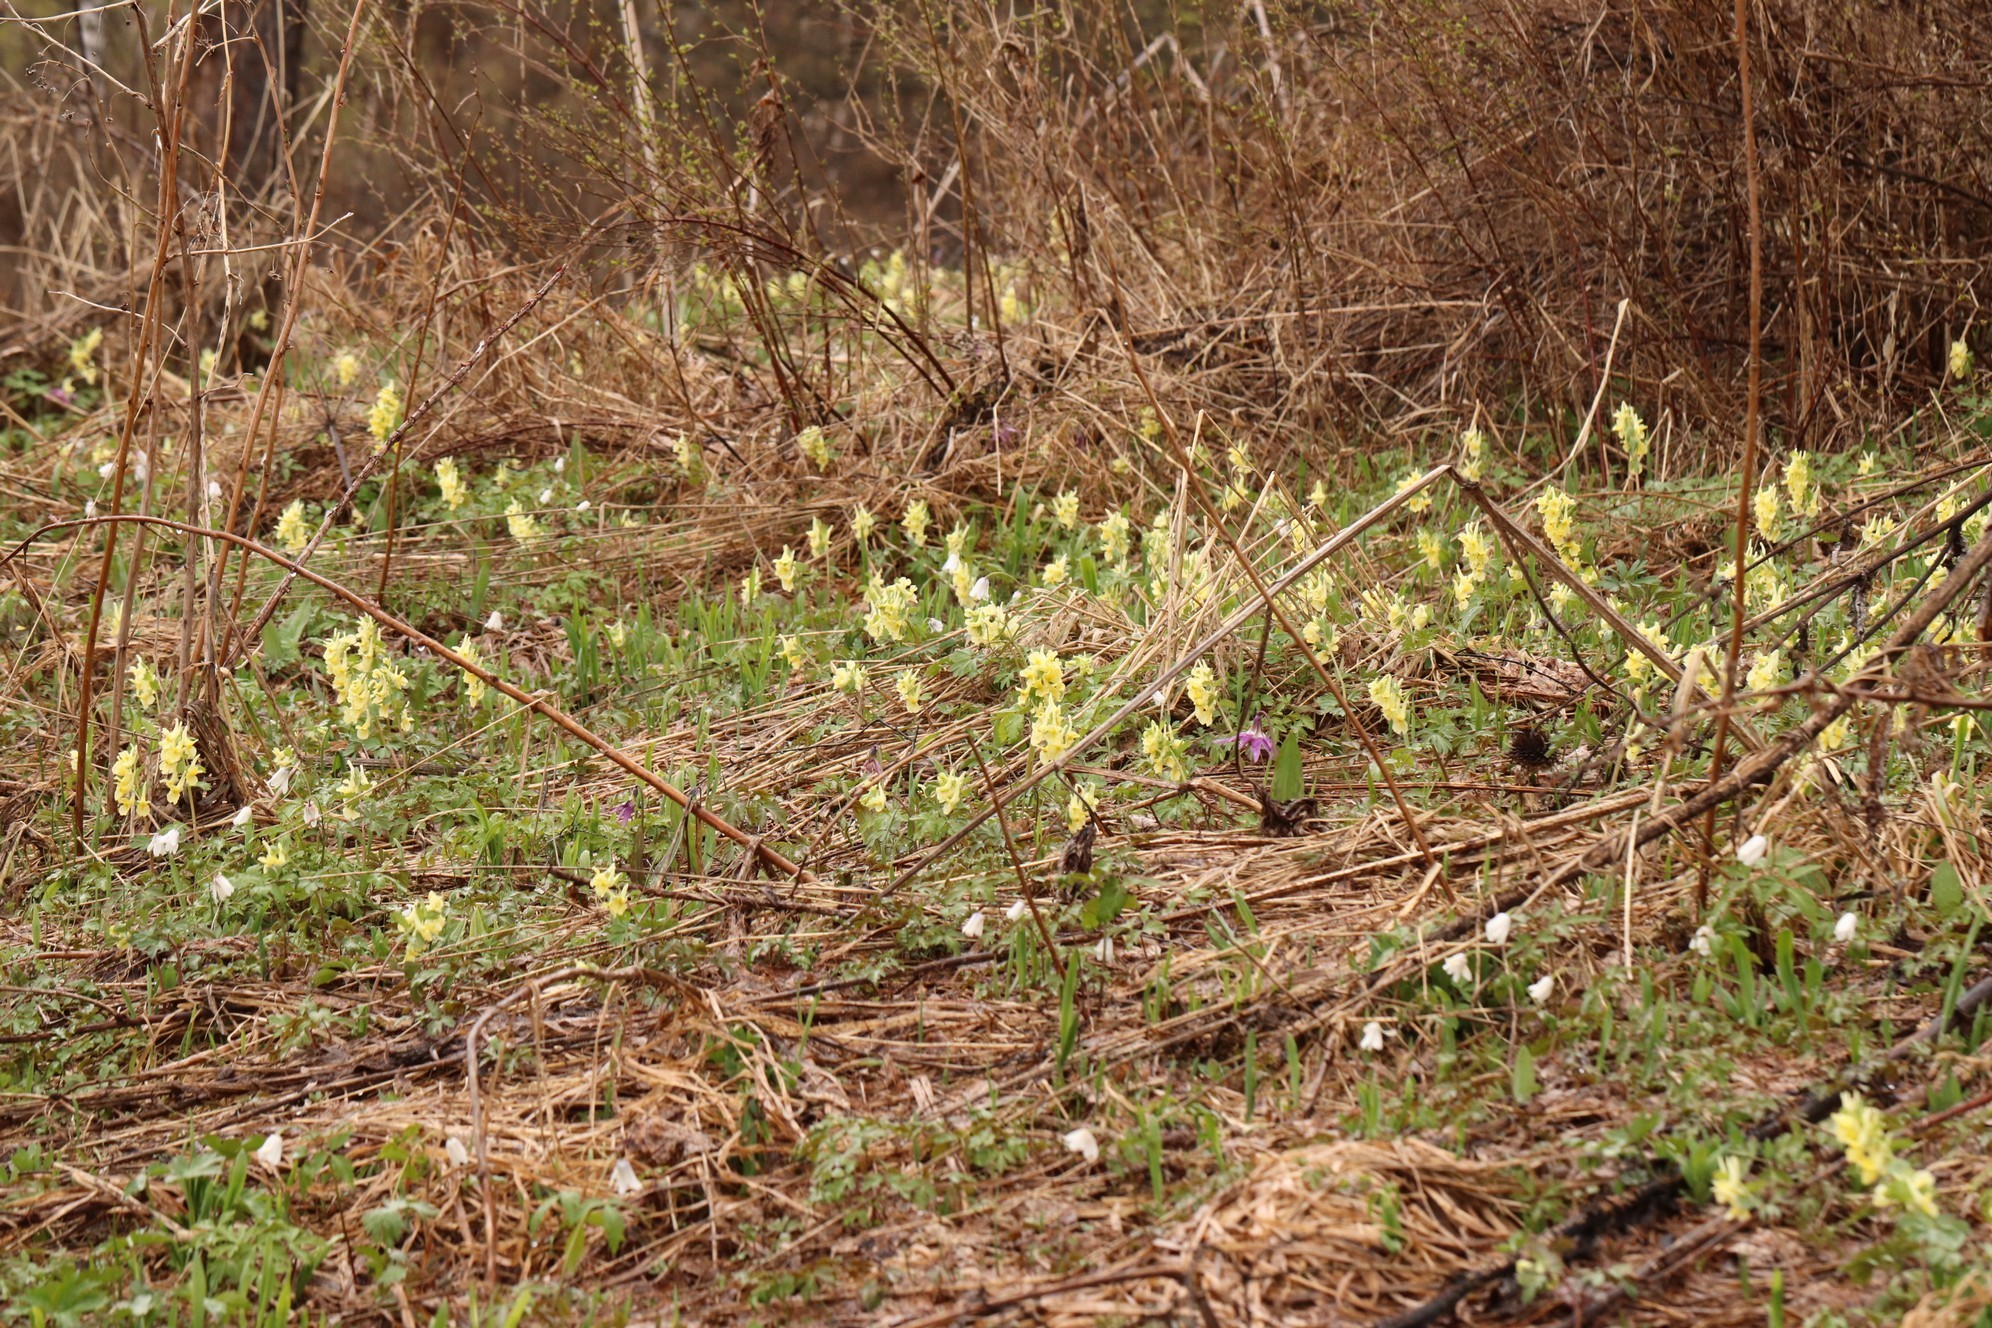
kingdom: Plantae
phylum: Tracheophyta
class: Magnoliopsida
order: Ranunculales
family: Papaveraceae
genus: Corydalis
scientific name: Corydalis bracteata
